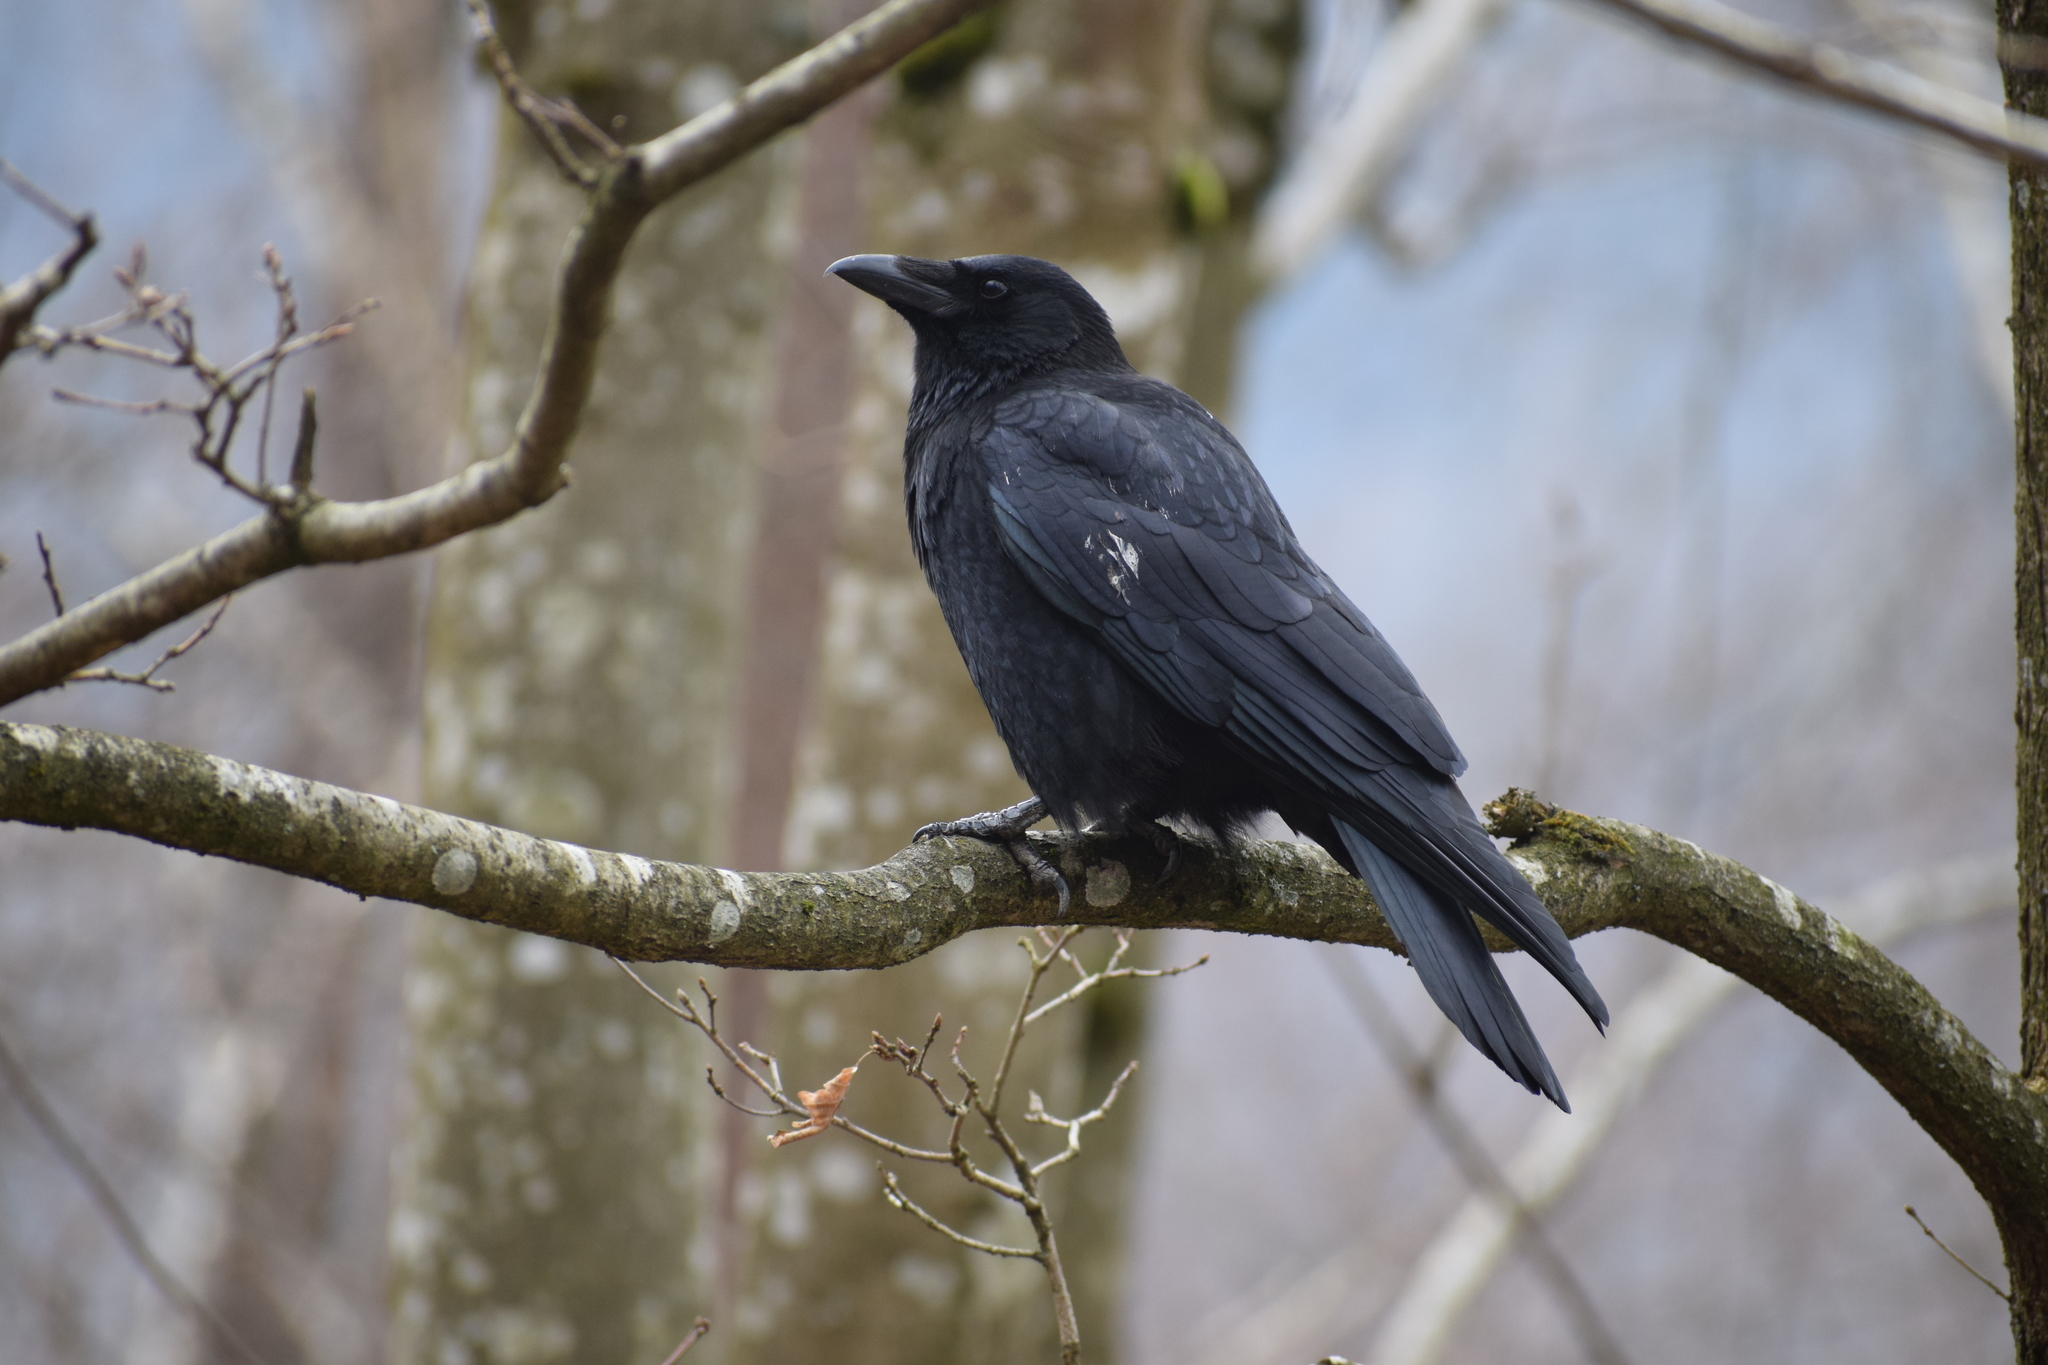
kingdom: Animalia
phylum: Chordata
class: Aves
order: Passeriformes
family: Corvidae
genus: Corvus
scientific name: Corvus corone
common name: Carrion crow
